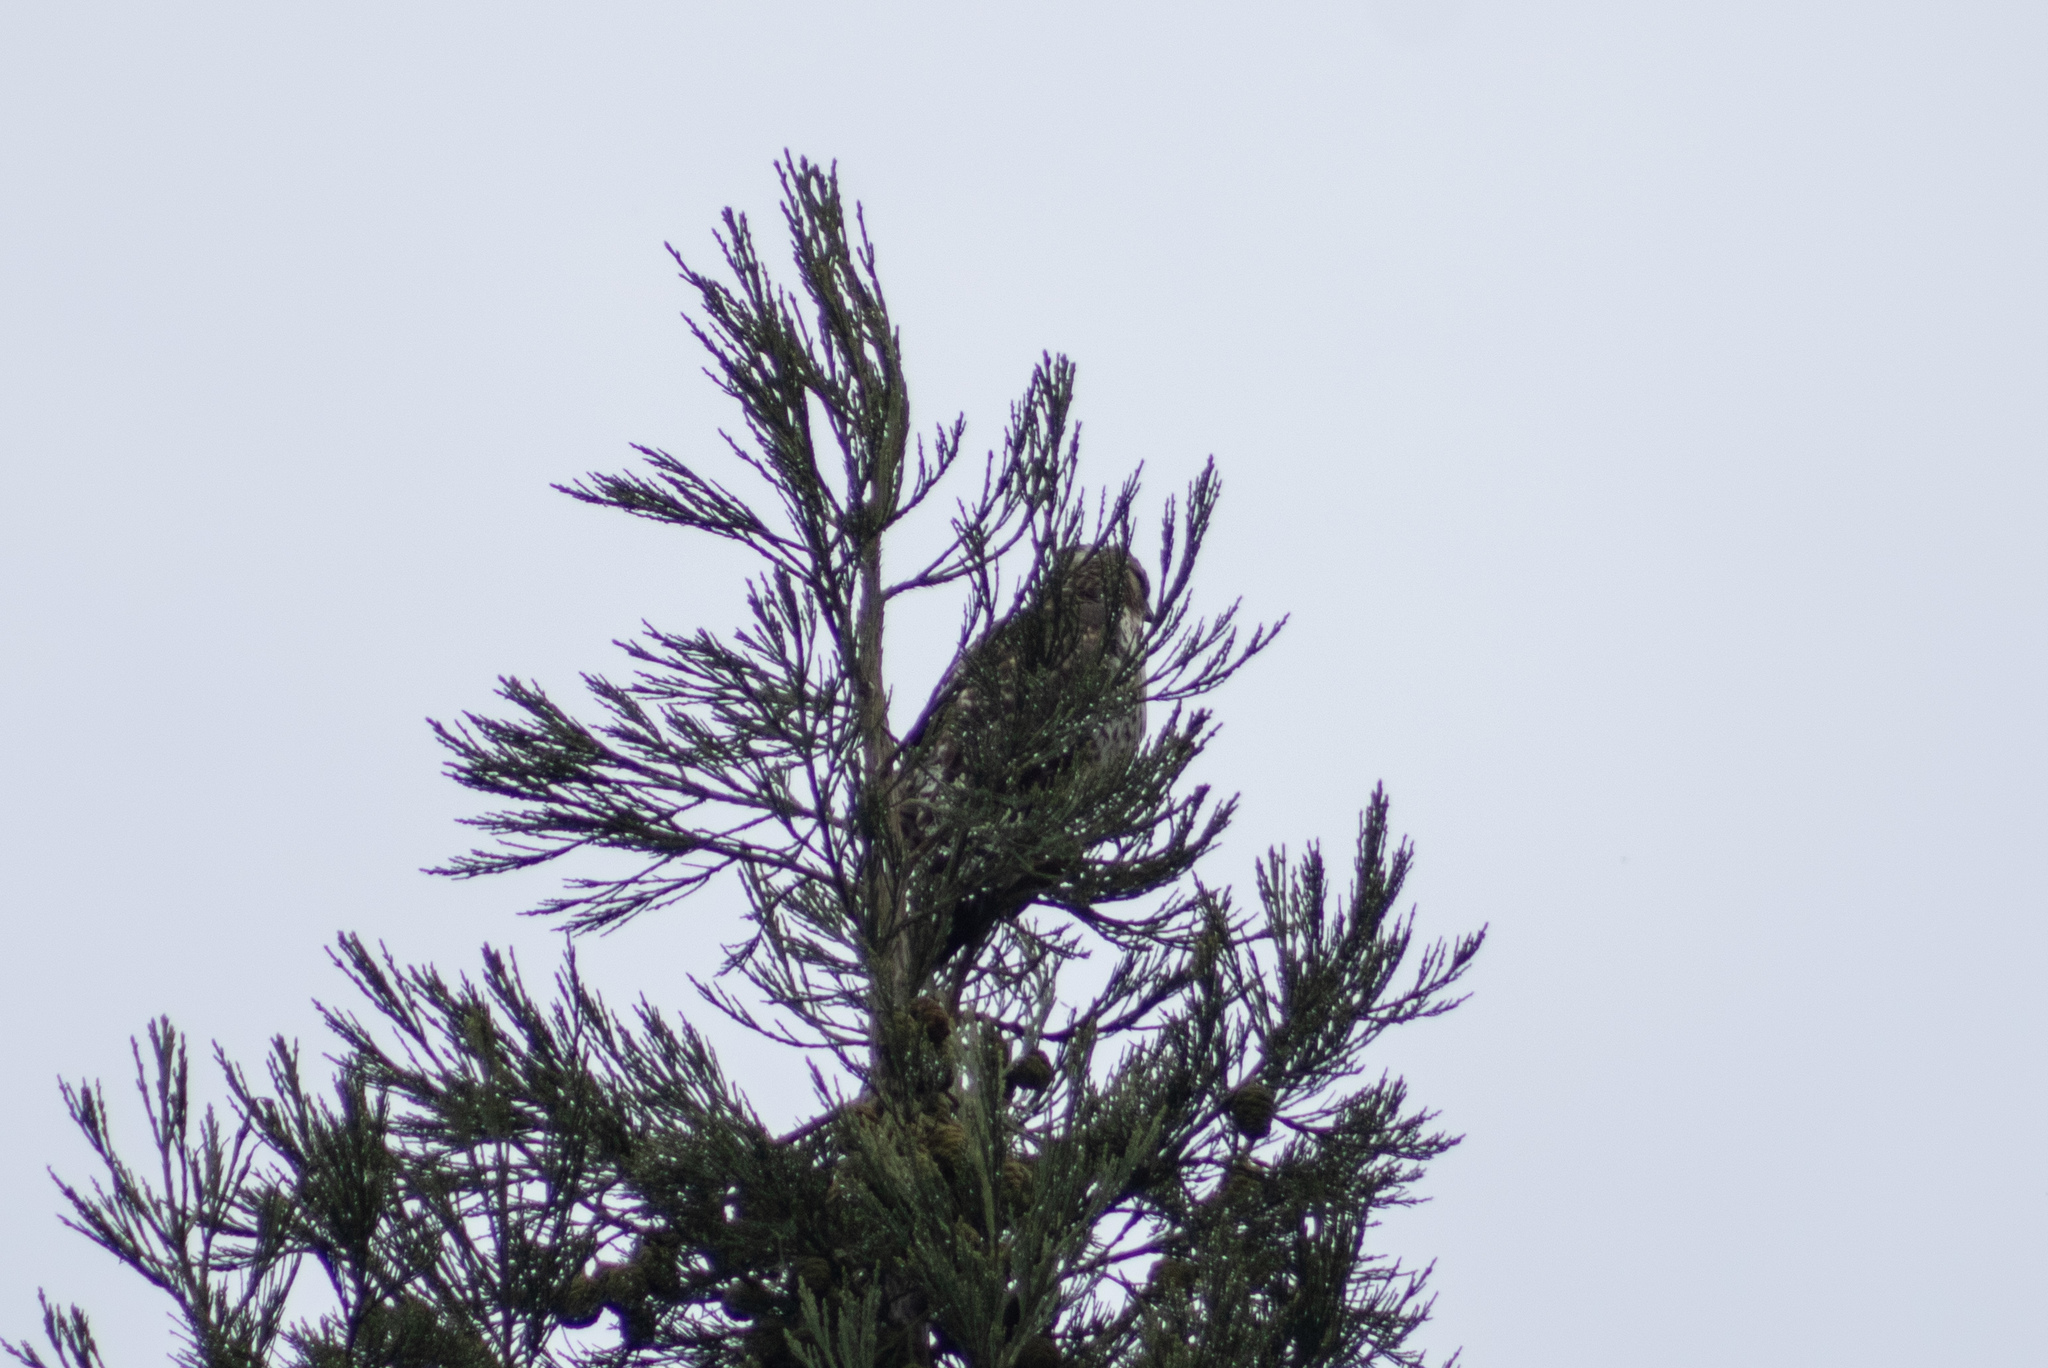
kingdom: Animalia
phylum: Chordata
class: Aves
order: Accipitriformes
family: Accipitridae
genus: Buteo
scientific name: Buteo jamaicensis
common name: Red-tailed hawk
